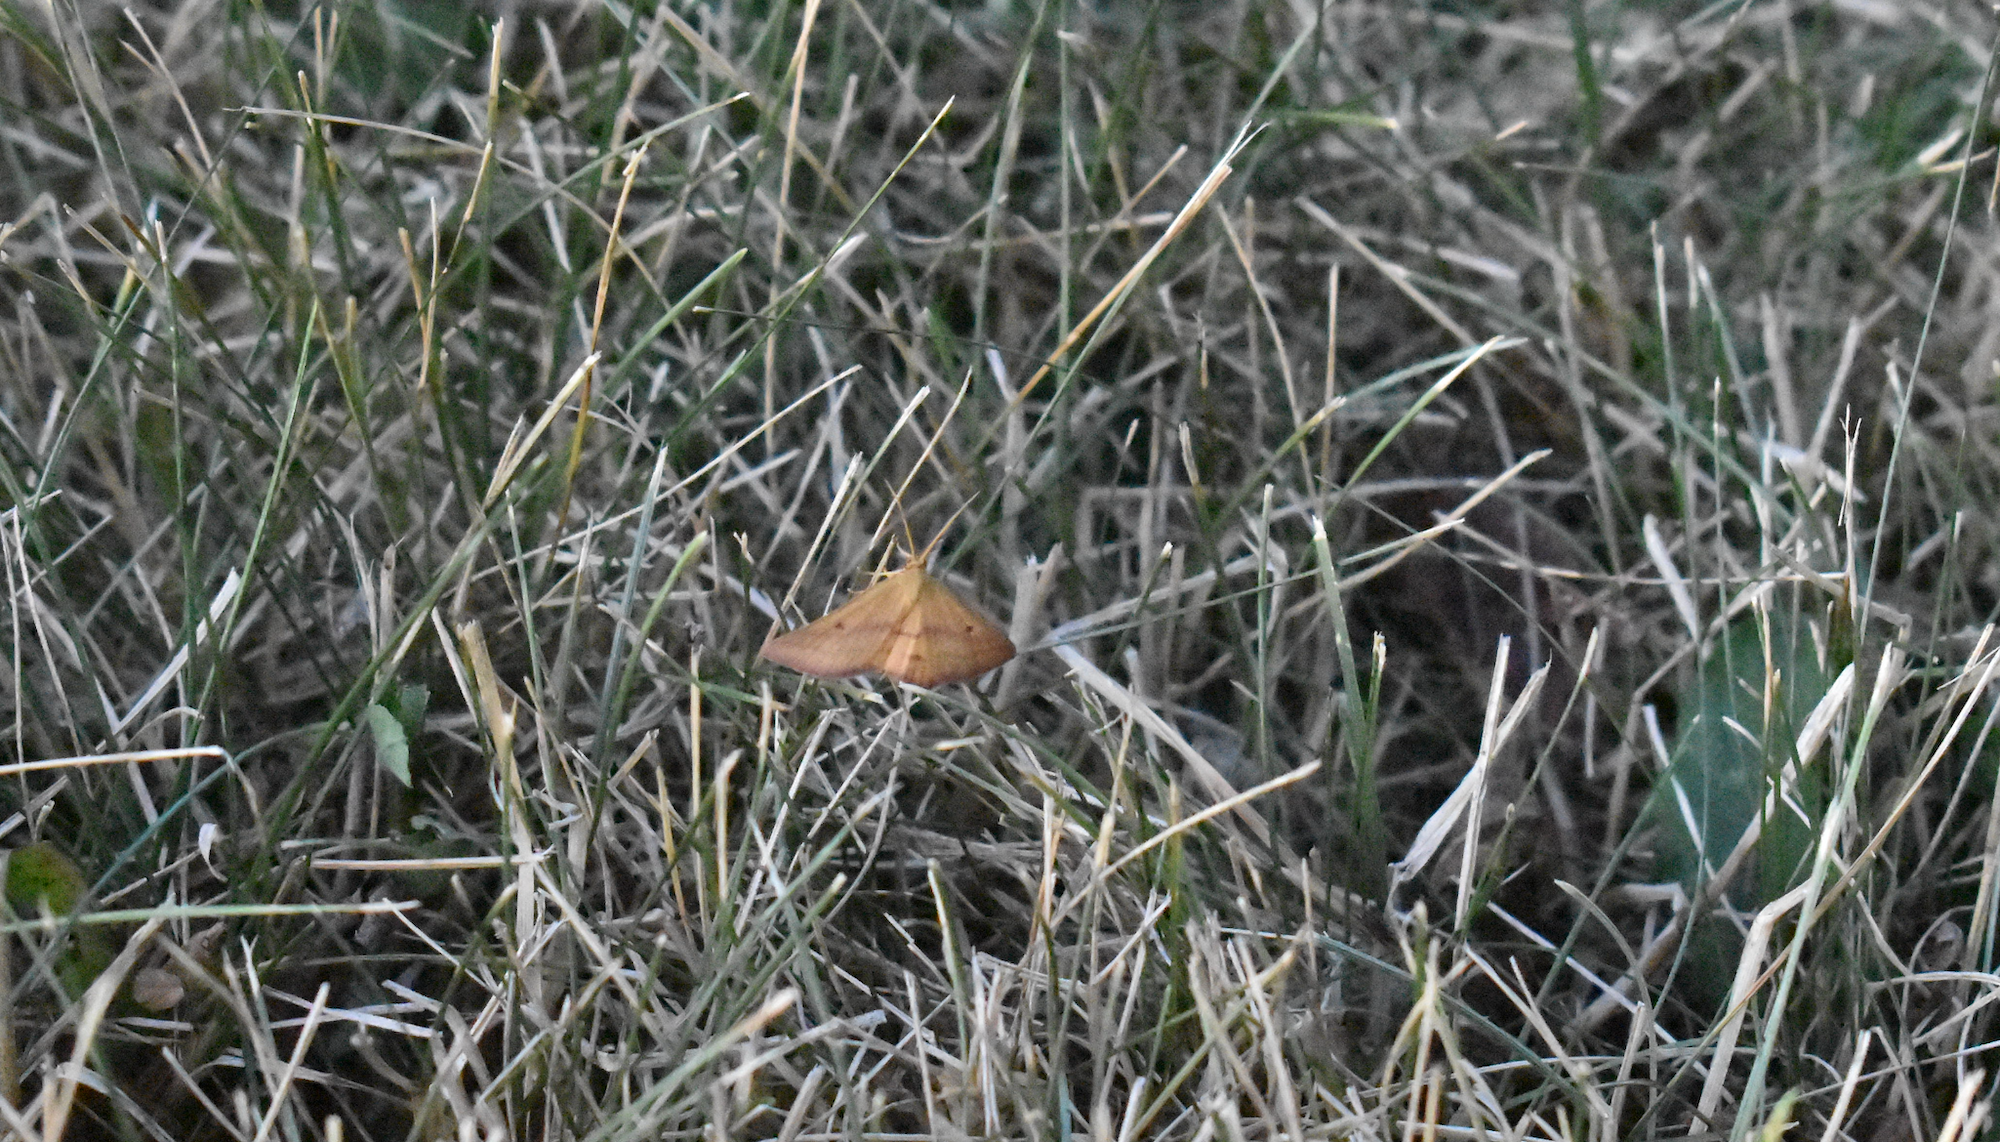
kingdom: Animalia
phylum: Arthropoda
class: Insecta
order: Lepidoptera
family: Geometridae
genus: Haematopis
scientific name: Haematopis grataria
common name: Chickweed geometer
